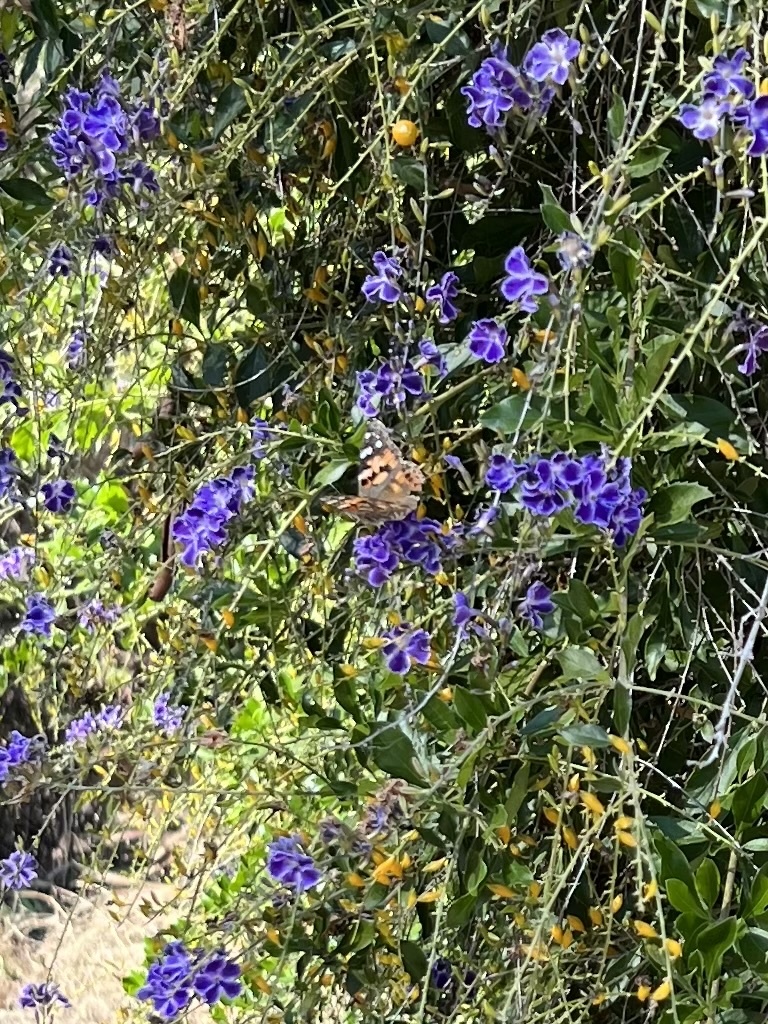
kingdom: Animalia
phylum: Arthropoda
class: Insecta
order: Lepidoptera
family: Nymphalidae
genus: Vanessa
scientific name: Vanessa cardui
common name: Painted lady
